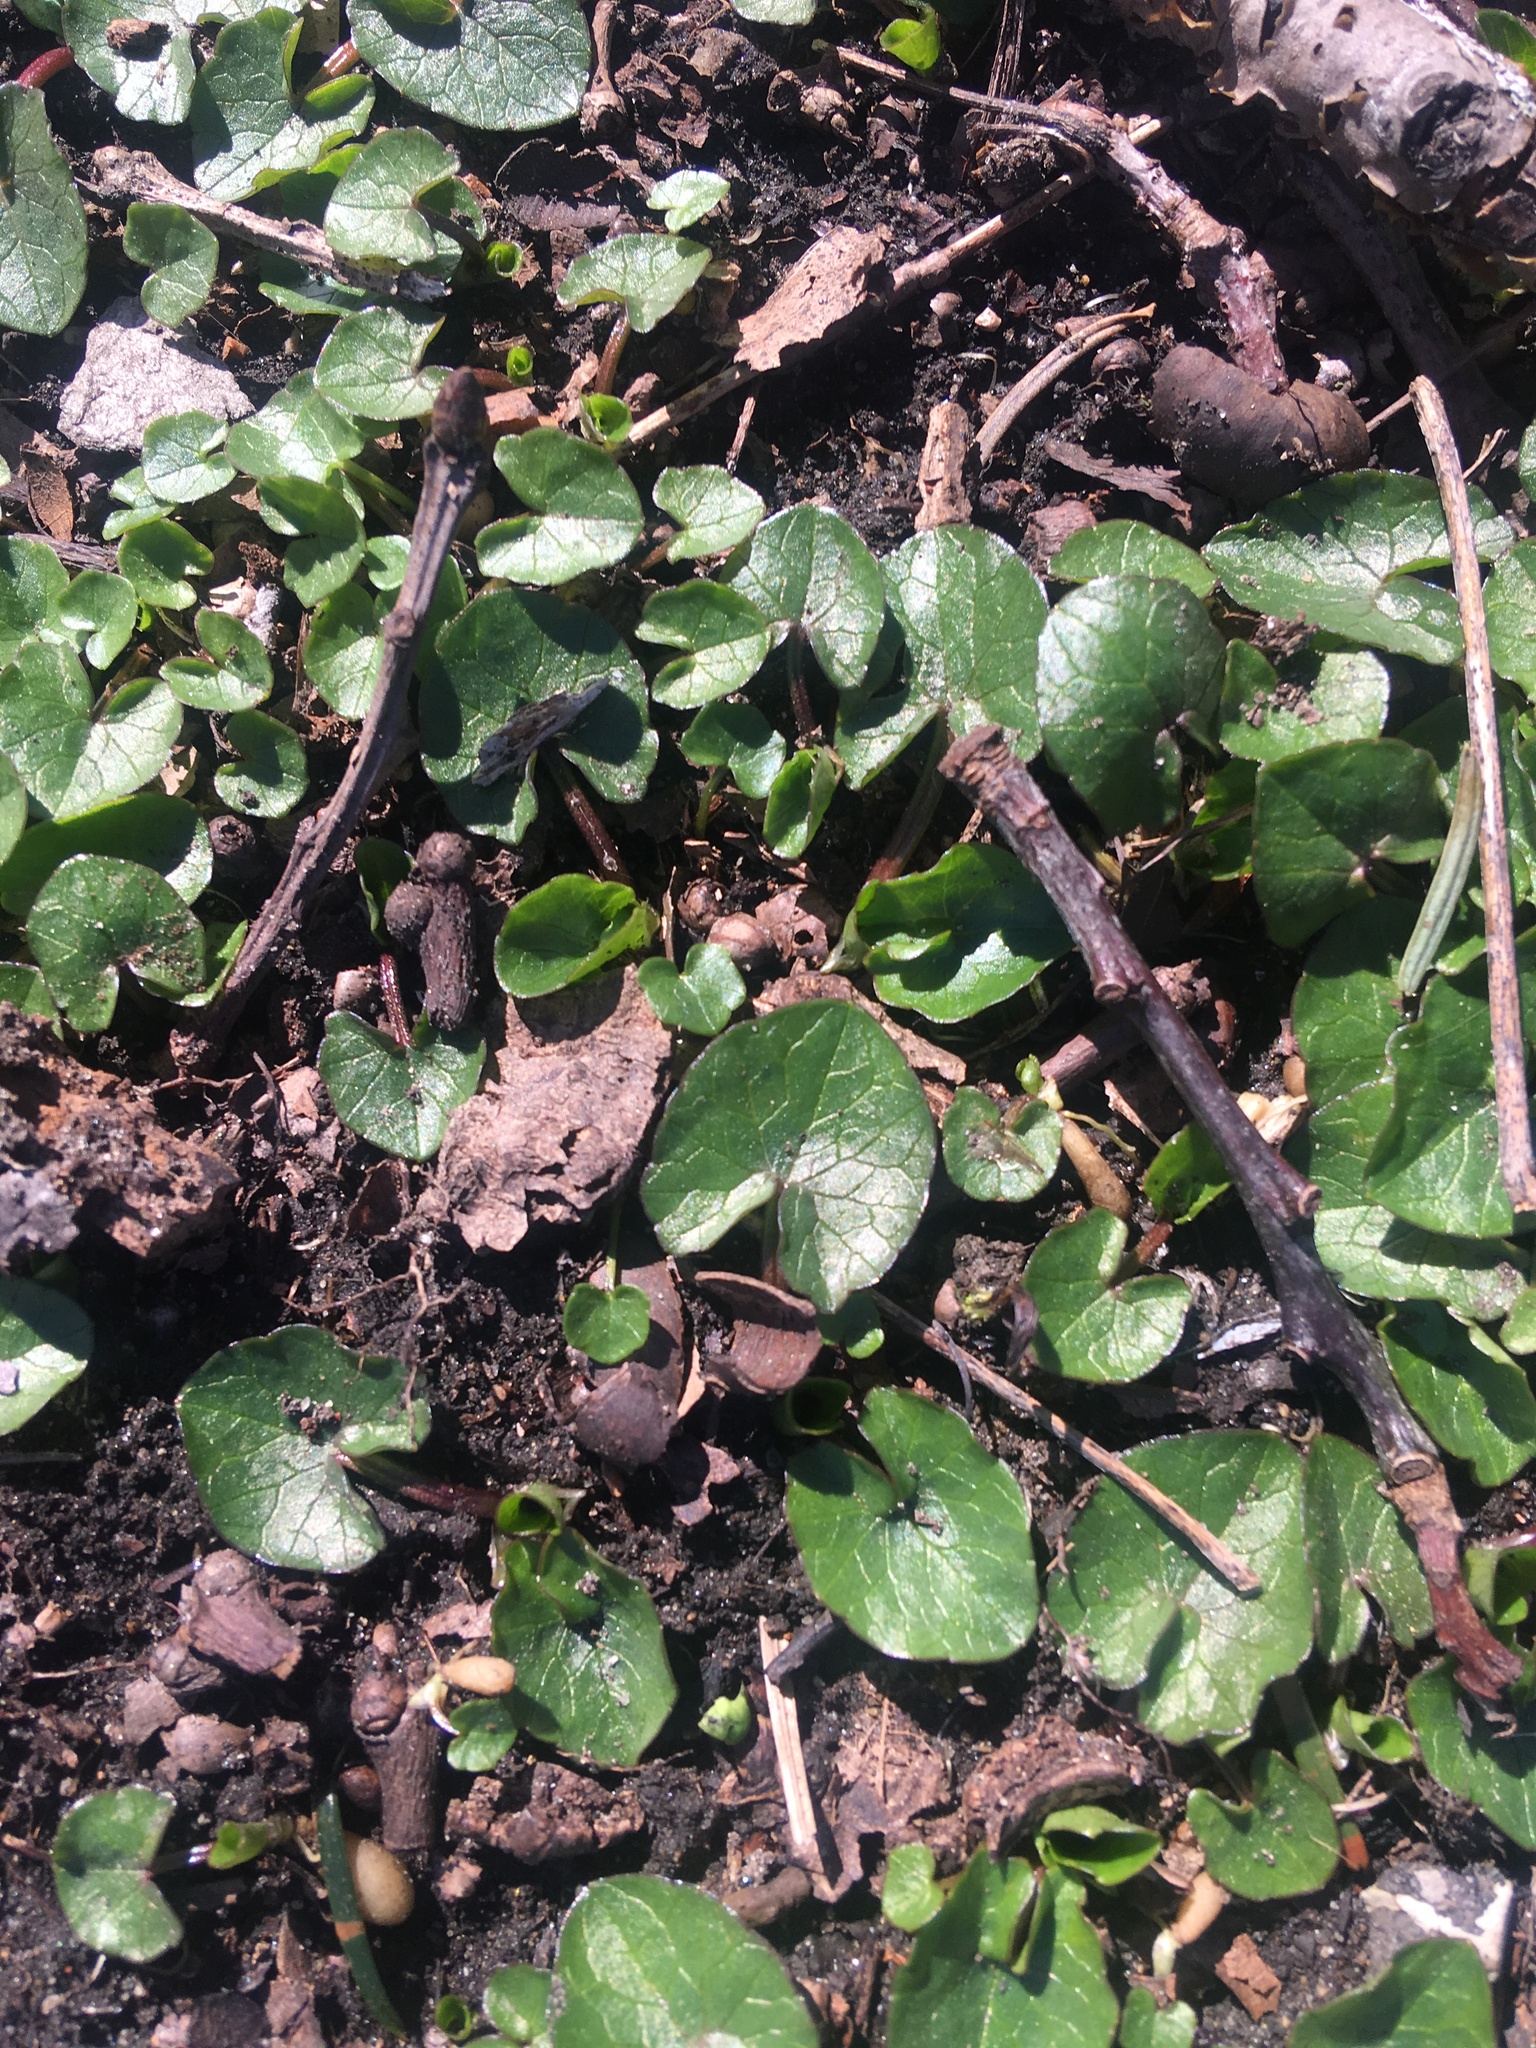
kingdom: Plantae
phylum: Tracheophyta
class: Magnoliopsida
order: Ranunculales
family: Ranunculaceae
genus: Ficaria
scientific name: Ficaria verna
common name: Lesser celandine
